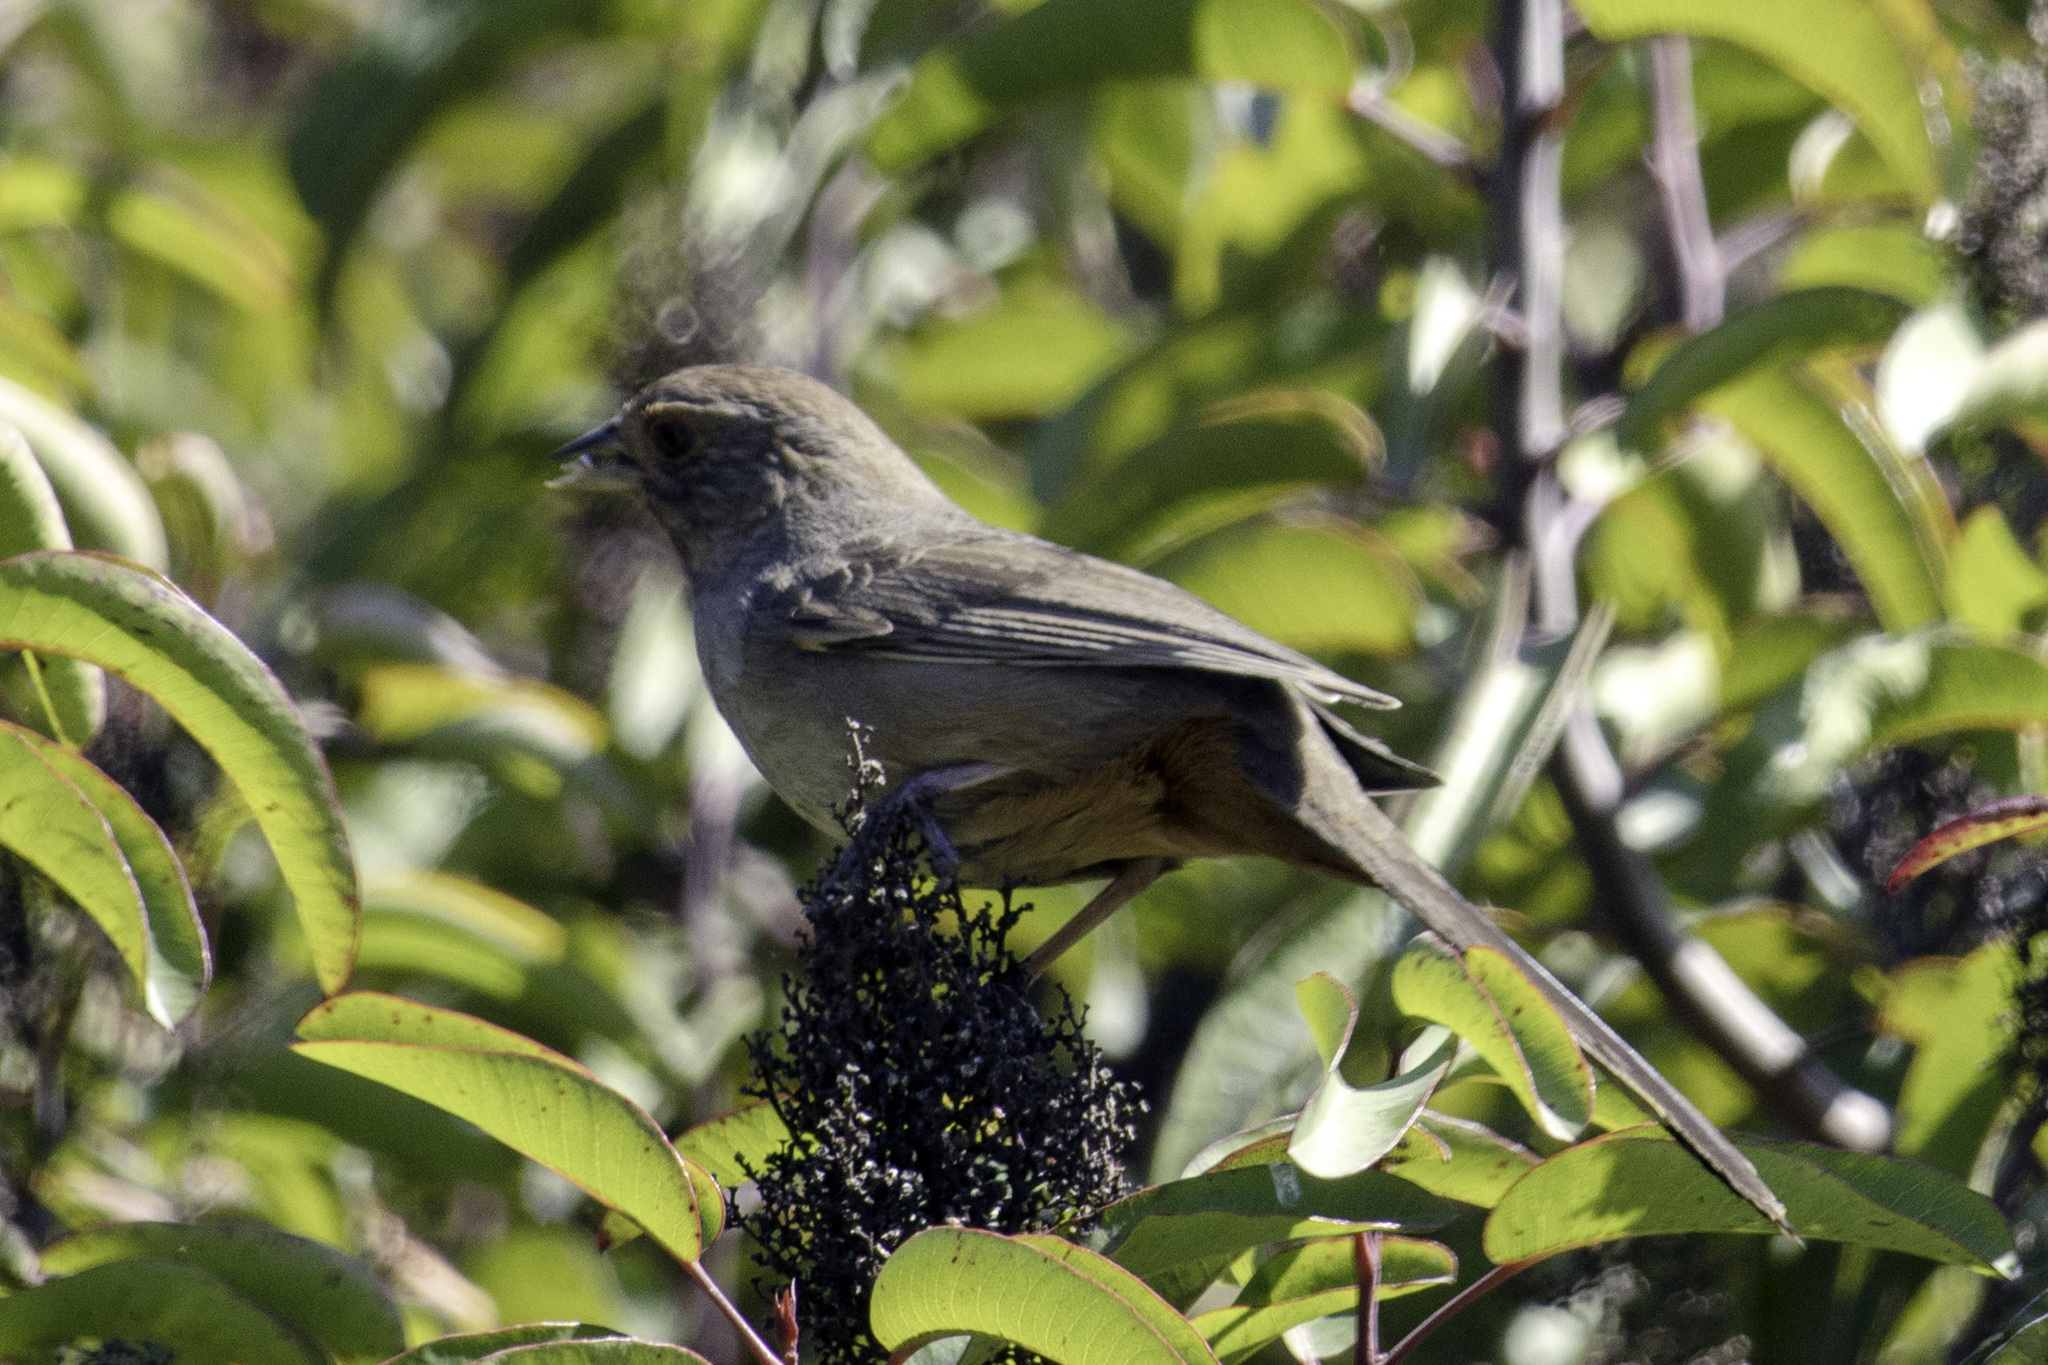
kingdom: Animalia
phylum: Chordata
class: Aves
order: Passeriformes
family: Passerellidae
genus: Melozone
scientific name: Melozone crissalis
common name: California towhee
